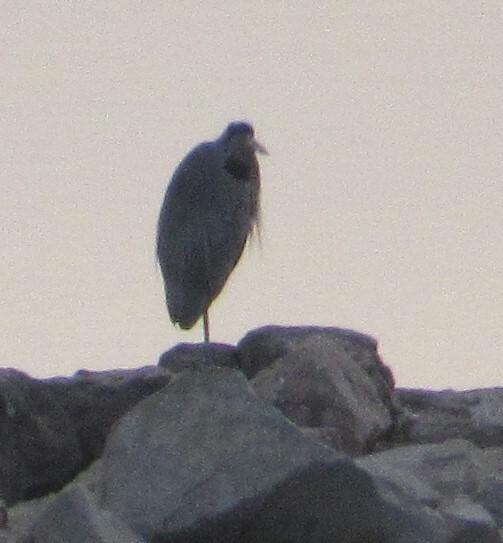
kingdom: Animalia
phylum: Chordata
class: Aves
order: Pelecaniformes
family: Ardeidae
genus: Ardea
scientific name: Ardea herodias
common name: Great blue heron
